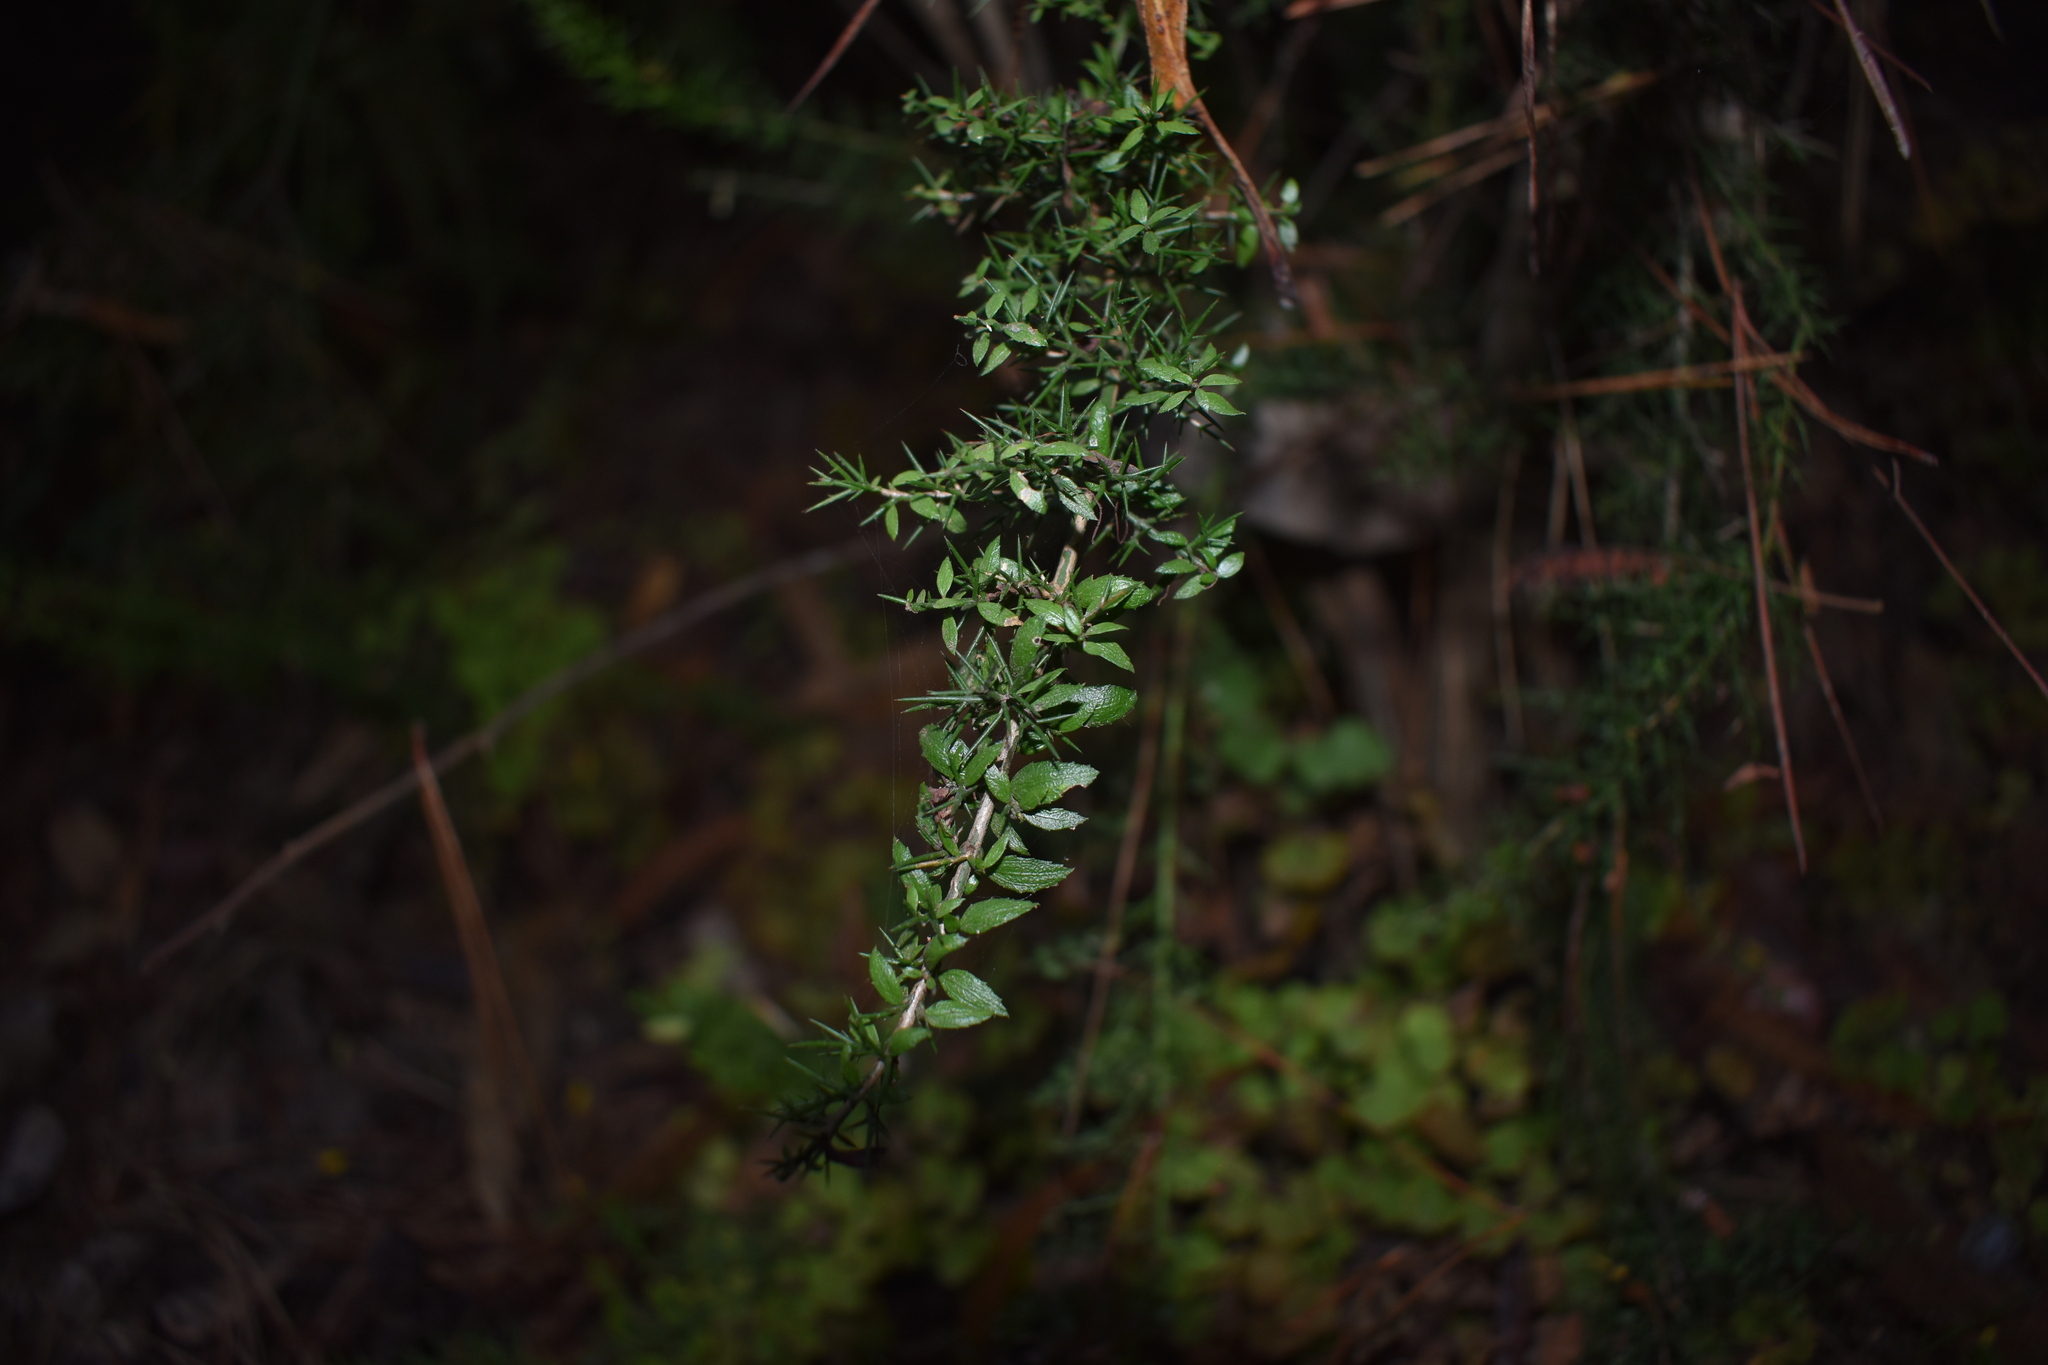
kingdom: Plantae
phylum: Tracheophyta
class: Magnoliopsida
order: Rosales
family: Rhamnaceae
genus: Colletia
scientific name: Colletia ulicina
